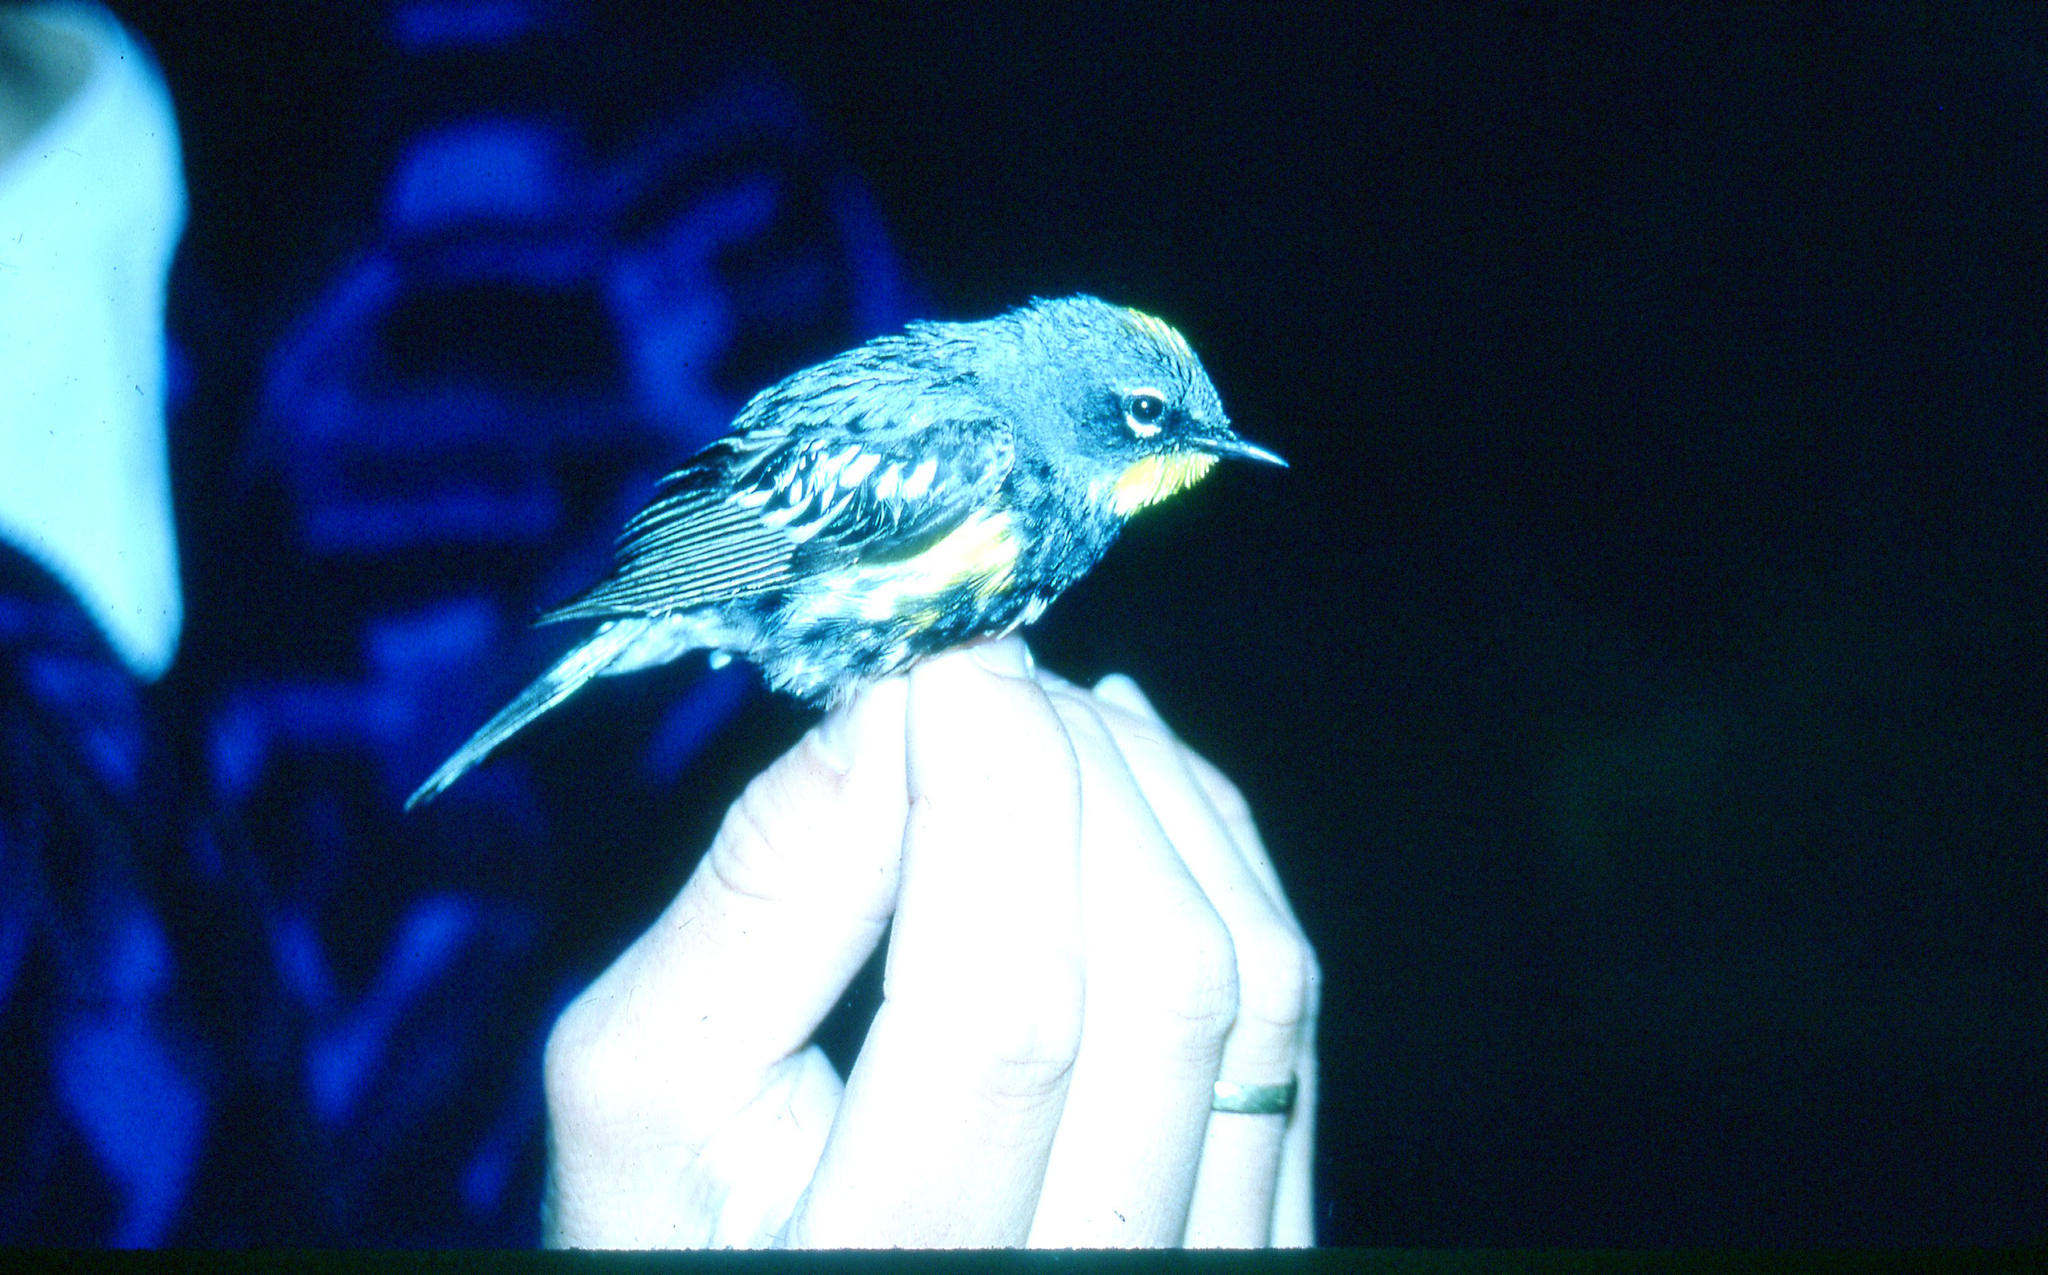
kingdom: Animalia
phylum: Chordata
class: Aves
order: Passeriformes
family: Parulidae
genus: Setophaga
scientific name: Setophaga coronata
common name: Myrtle warbler
